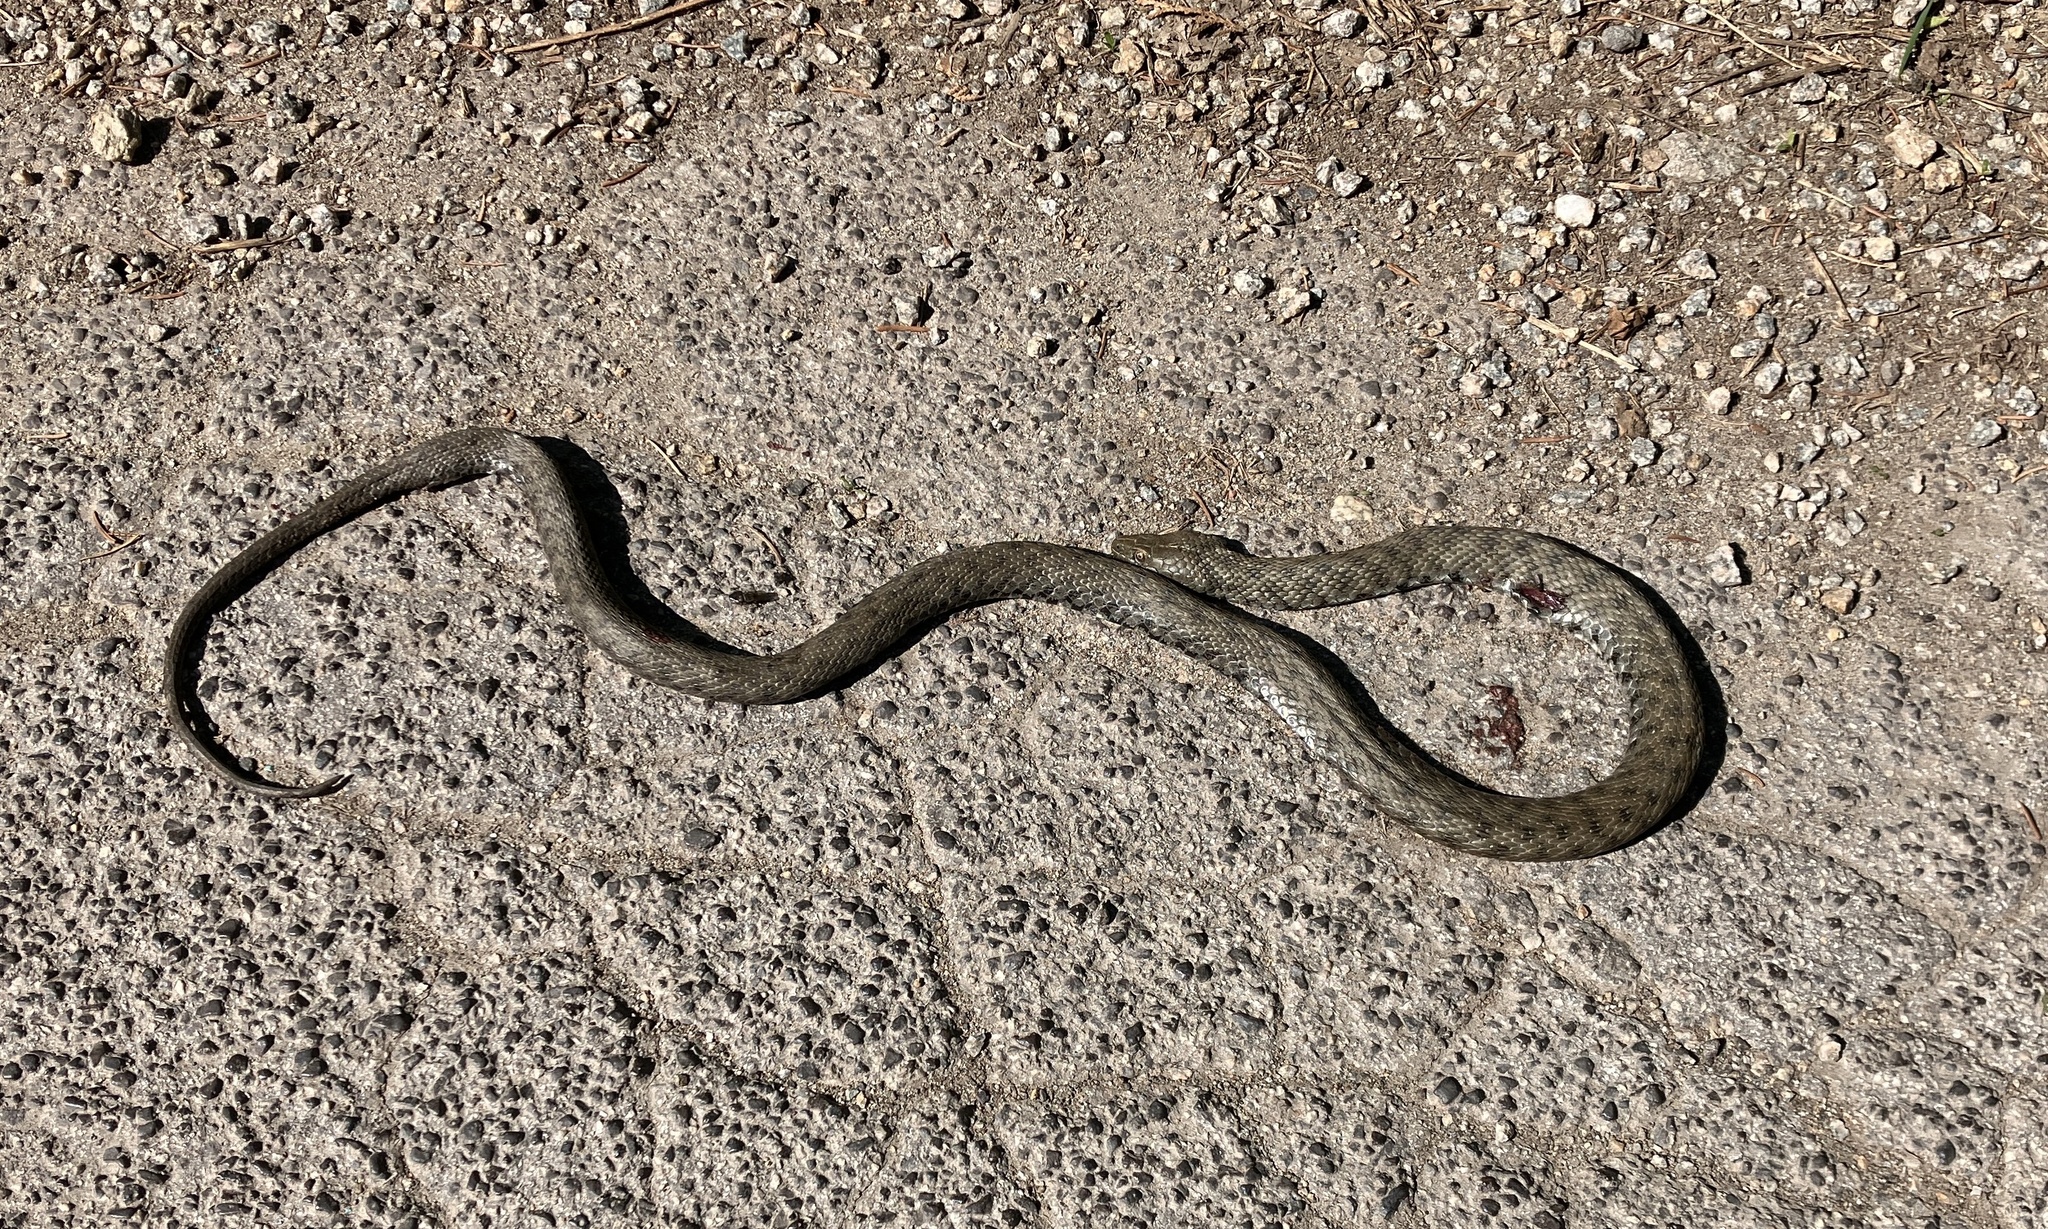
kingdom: Animalia
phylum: Chordata
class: Squamata
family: Colubridae
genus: Natrix
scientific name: Natrix tessellata
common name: Dice snake
